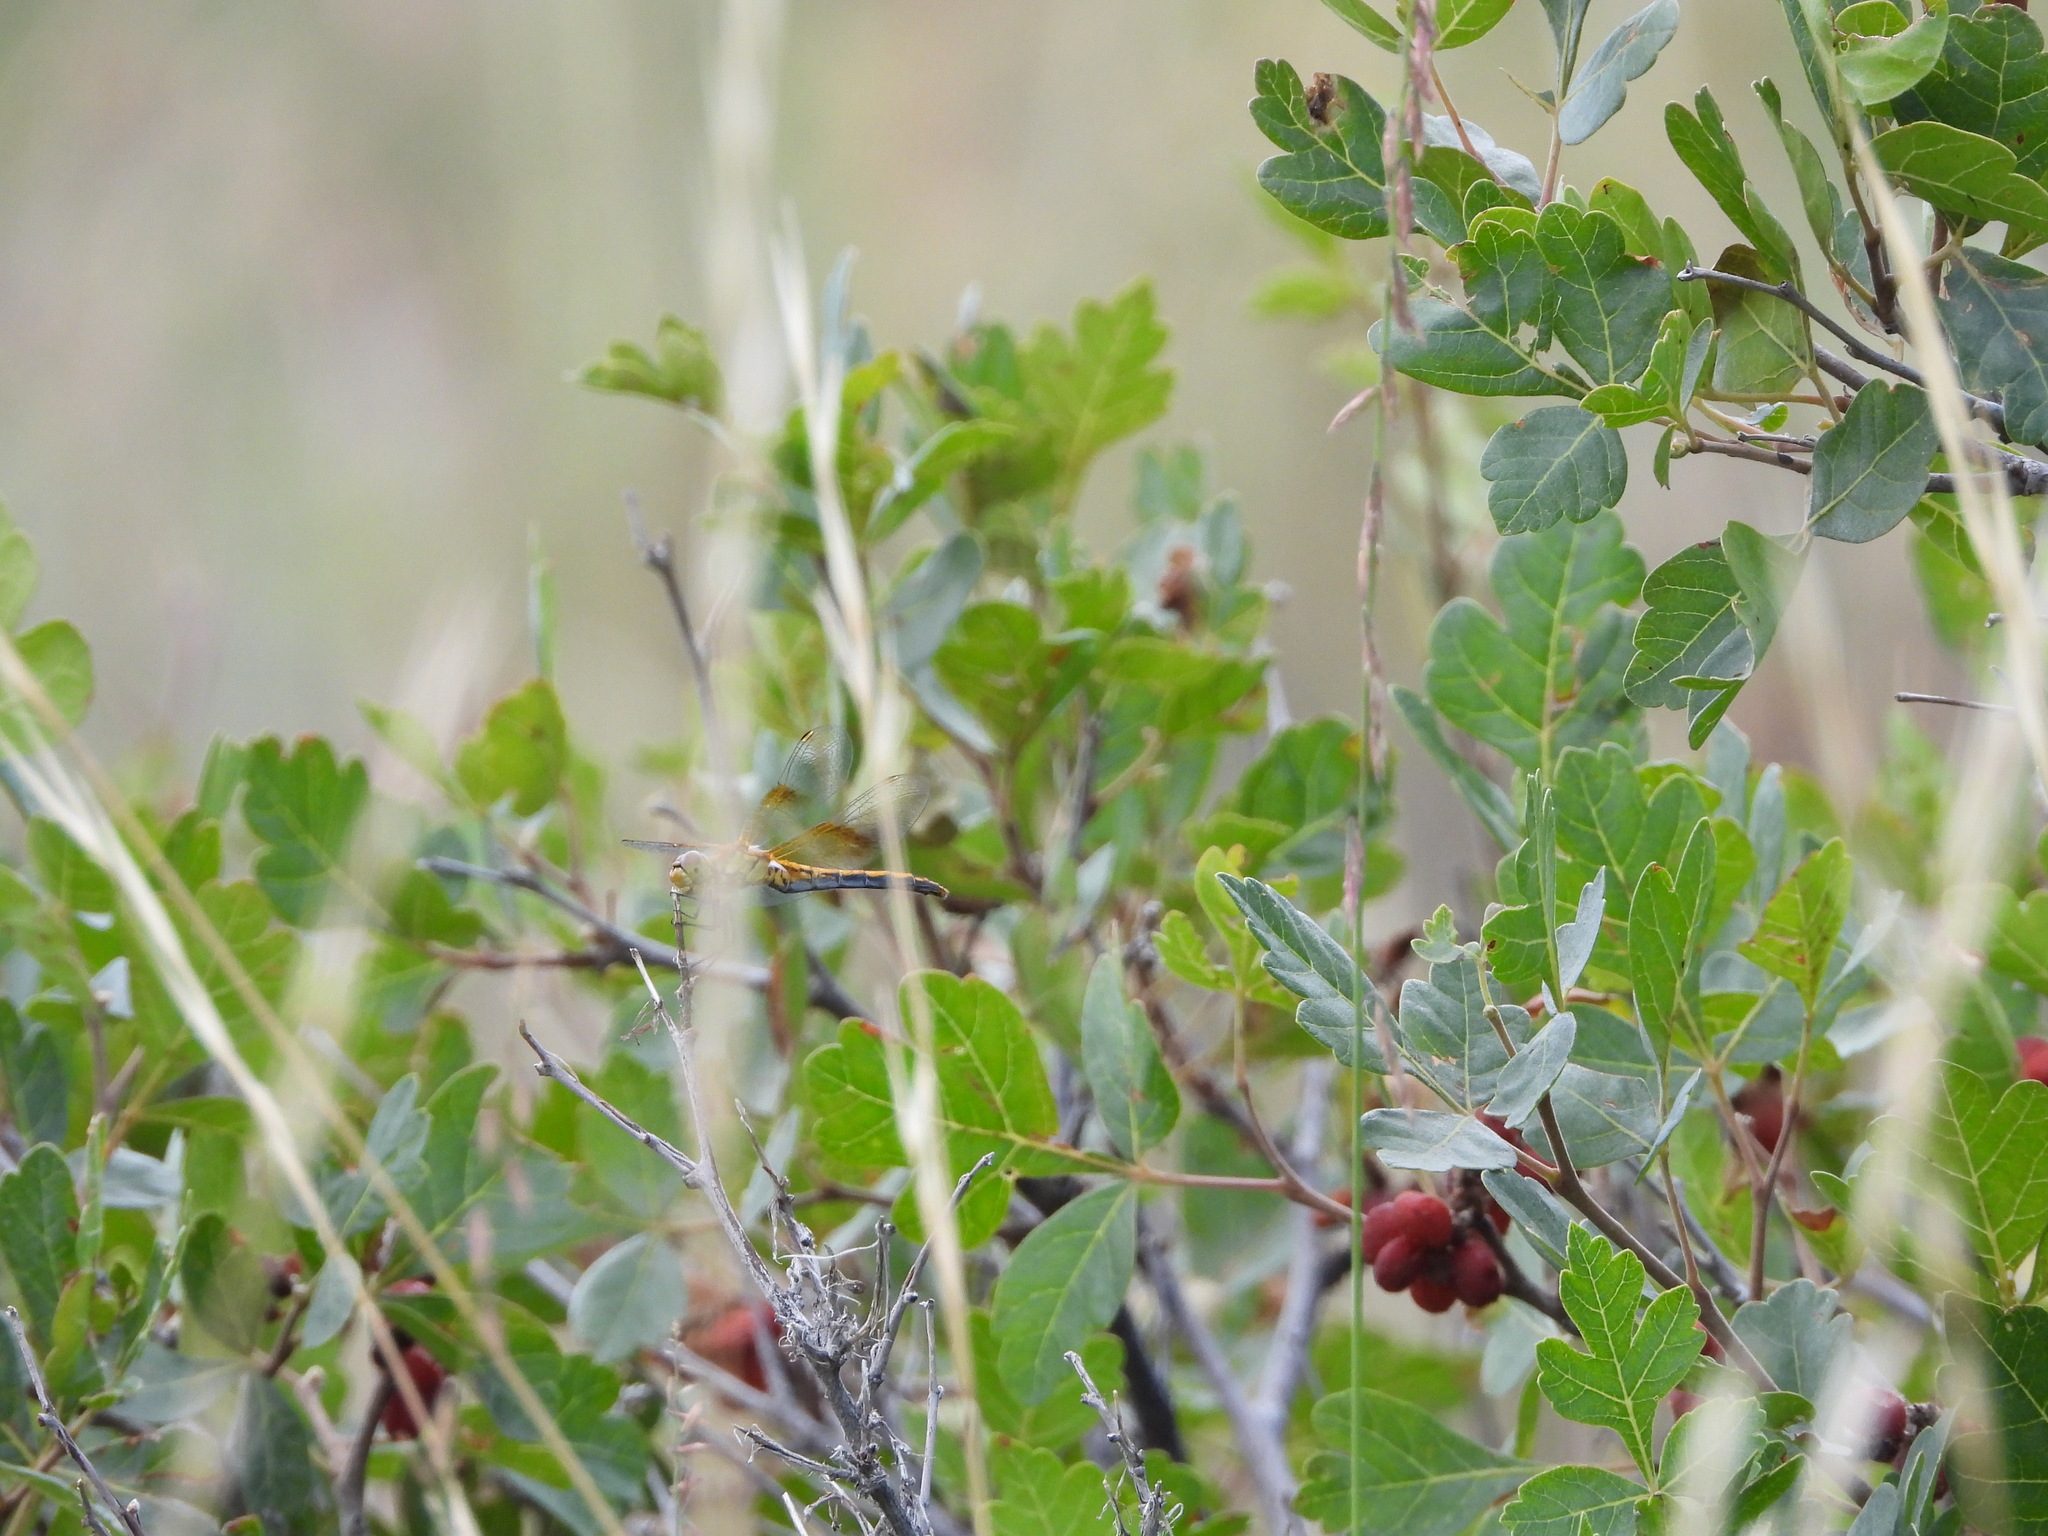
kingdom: Animalia
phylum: Arthropoda
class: Insecta
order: Odonata
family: Libellulidae
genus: Sympetrum
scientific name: Sympetrum semicinctum
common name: Band-winged meadowhawk
